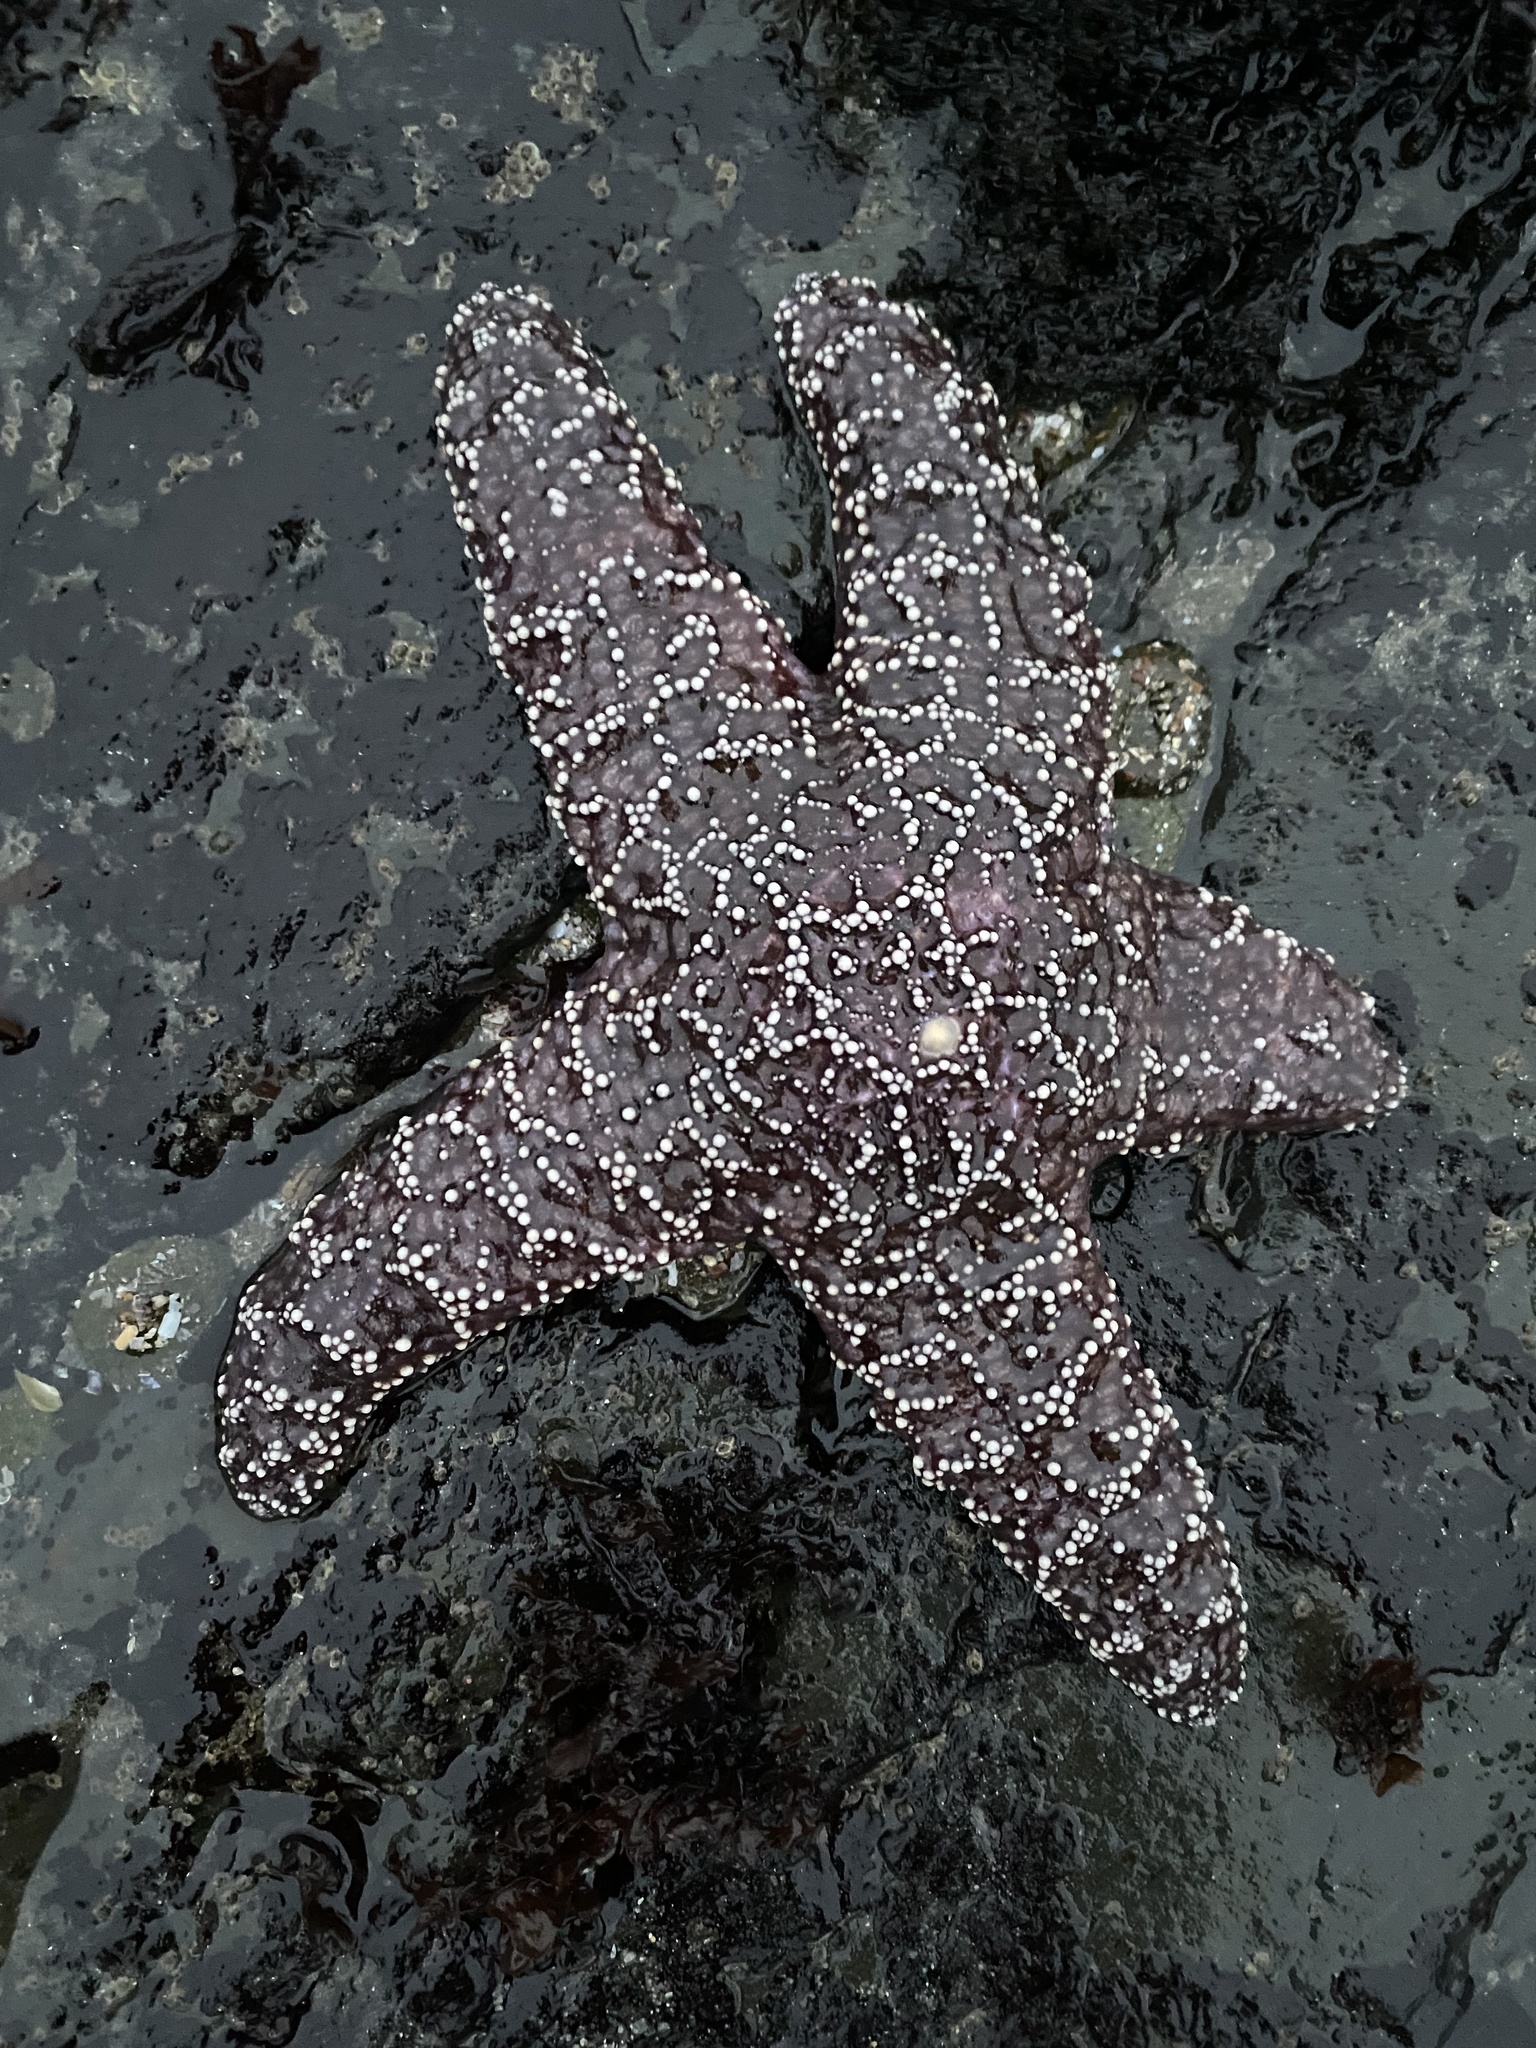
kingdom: Animalia
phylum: Echinodermata
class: Asteroidea
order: Forcipulatida
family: Asteriidae
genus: Pisaster
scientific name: Pisaster ochraceus
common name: Ochre stars
